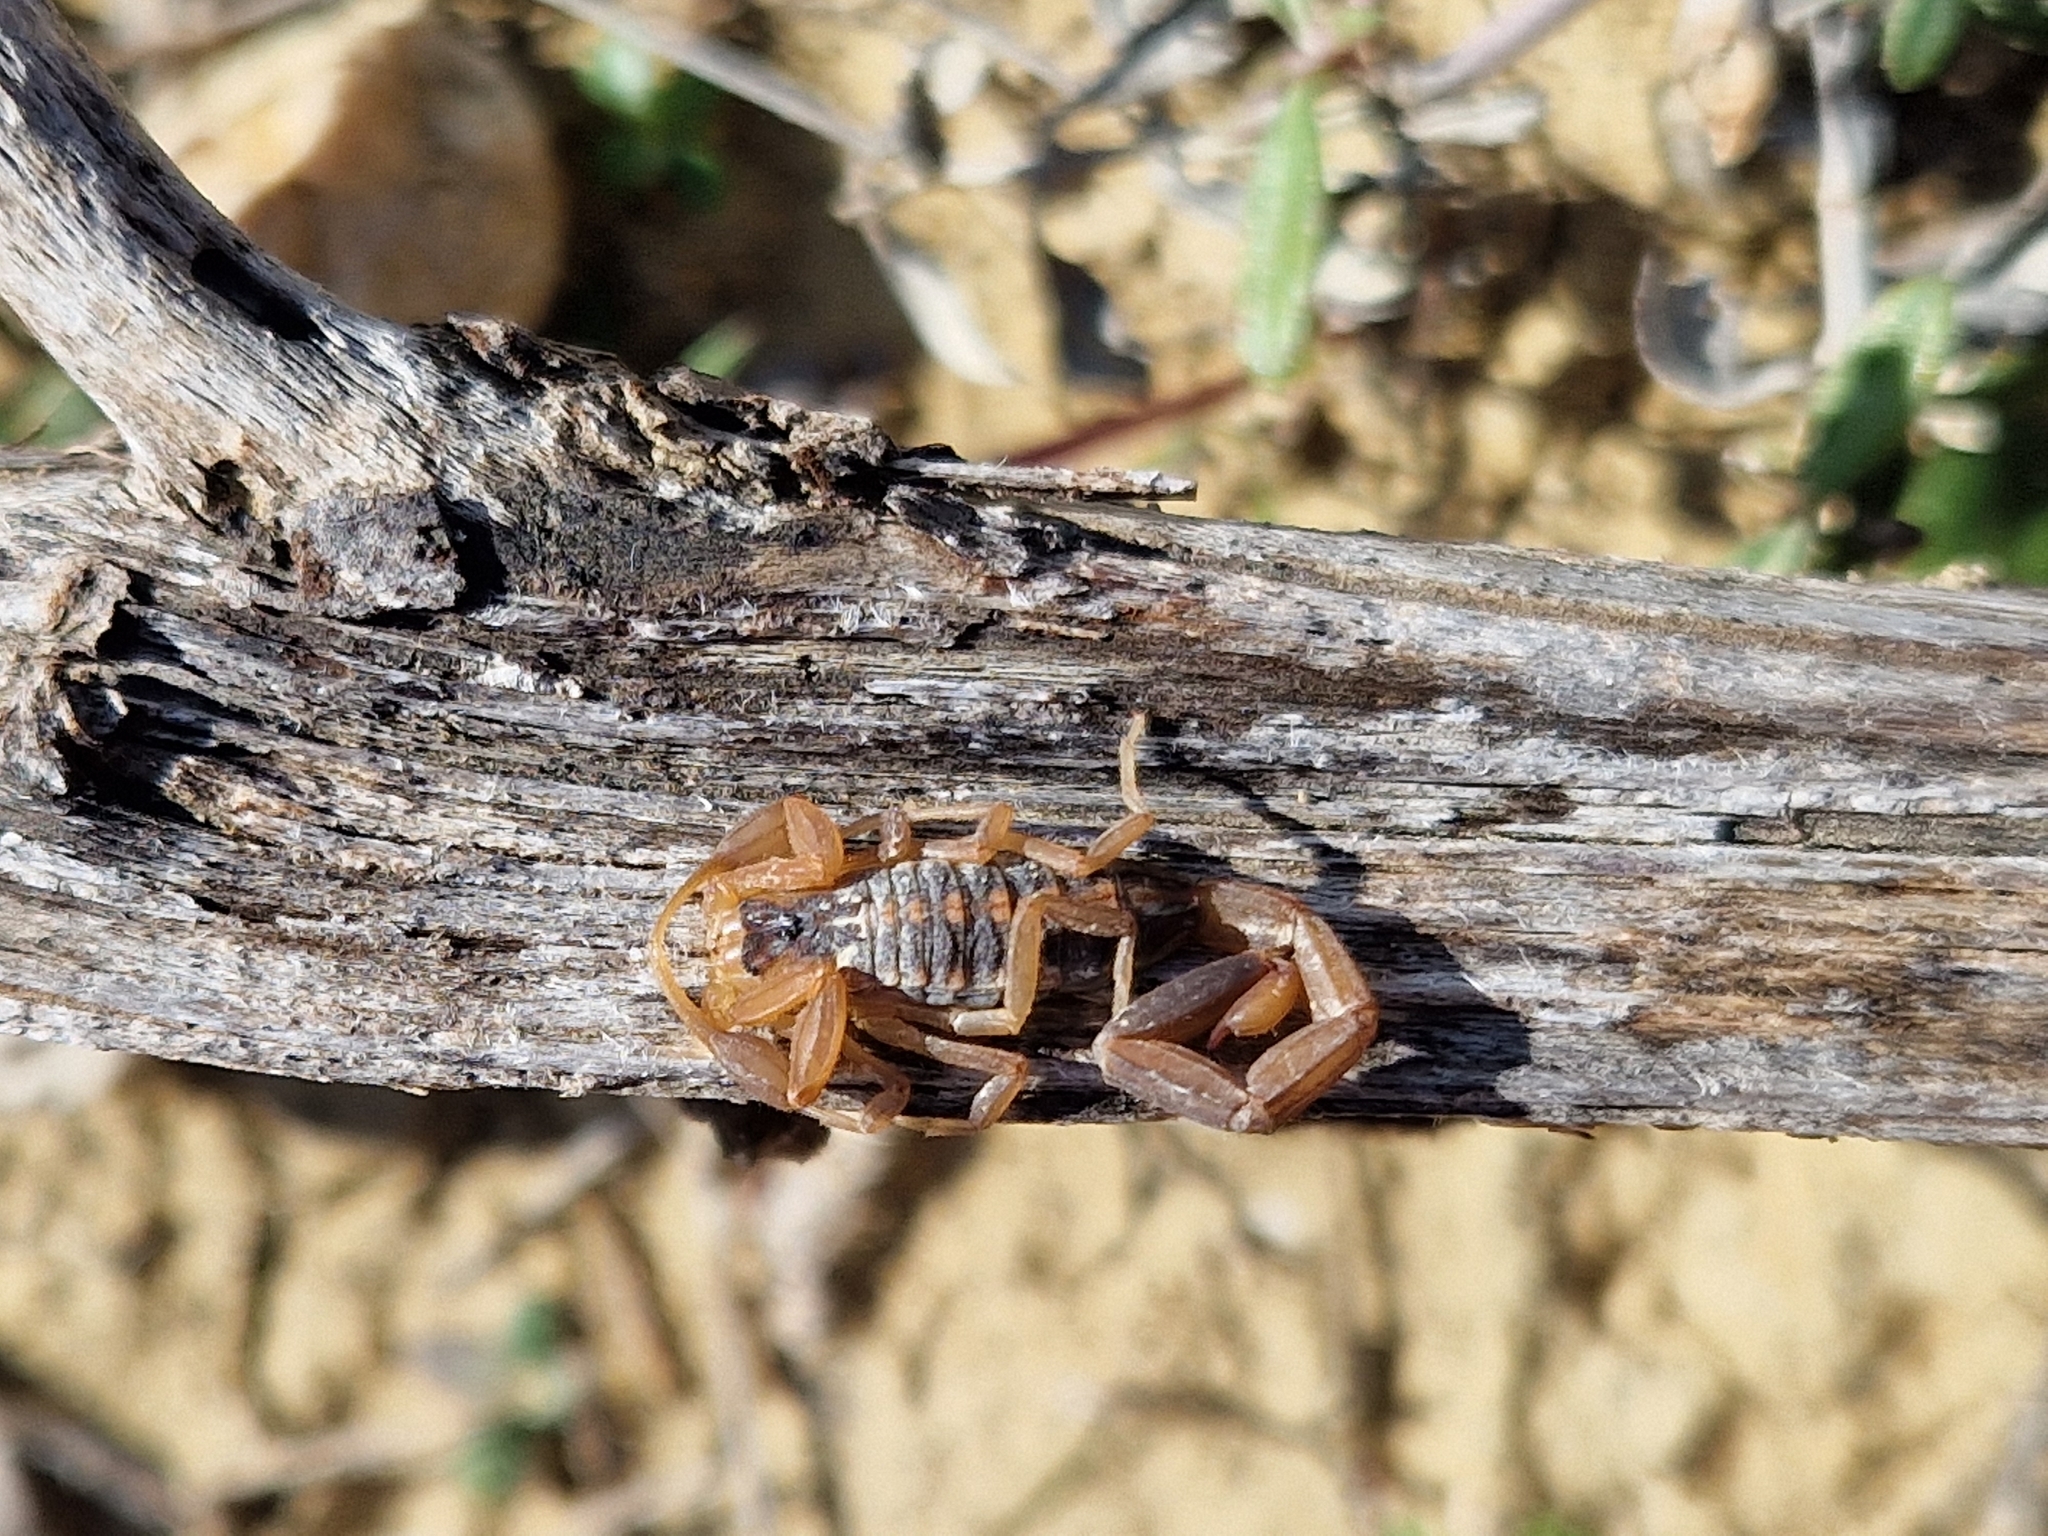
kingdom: Animalia
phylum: Arthropoda
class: Arachnida
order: Scorpiones
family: Buthidae
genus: Centruroides
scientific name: Centruroides vittatus
